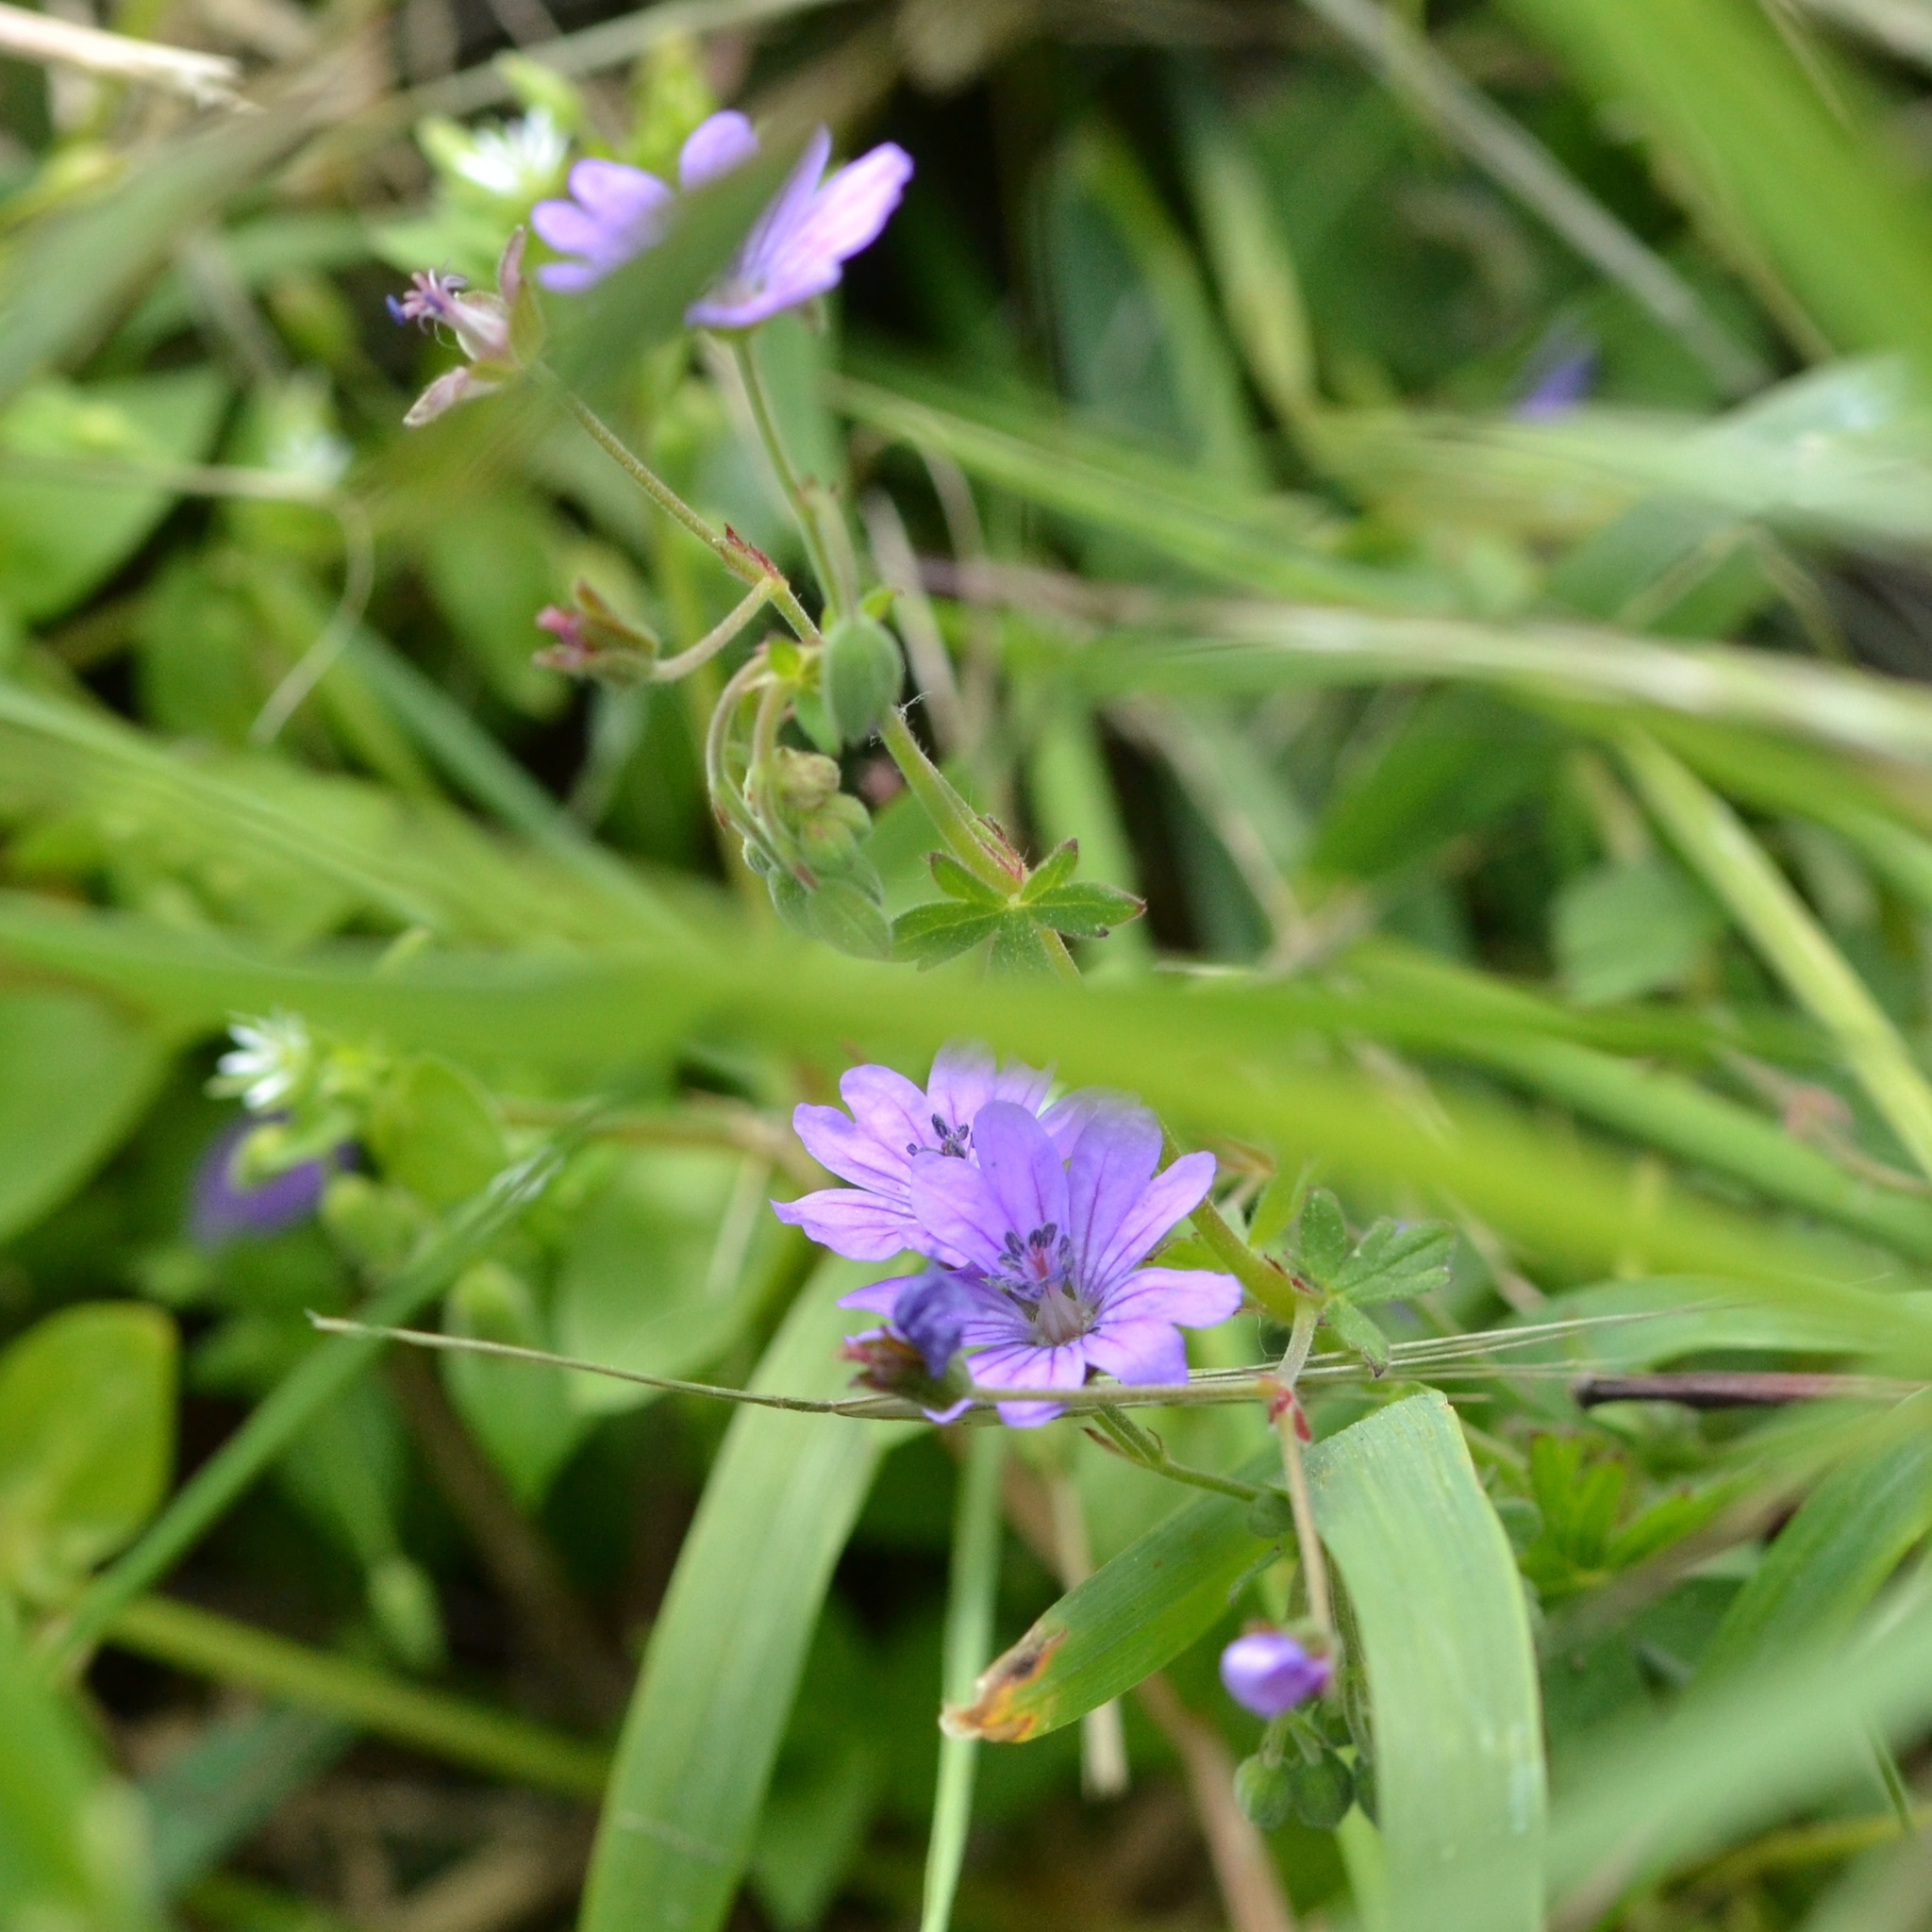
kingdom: Plantae
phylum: Tracheophyta
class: Magnoliopsida
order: Geraniales
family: Geraniaceae
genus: Geranium
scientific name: Geranium pyrenaicum
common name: Hedgerow crane's-bill
